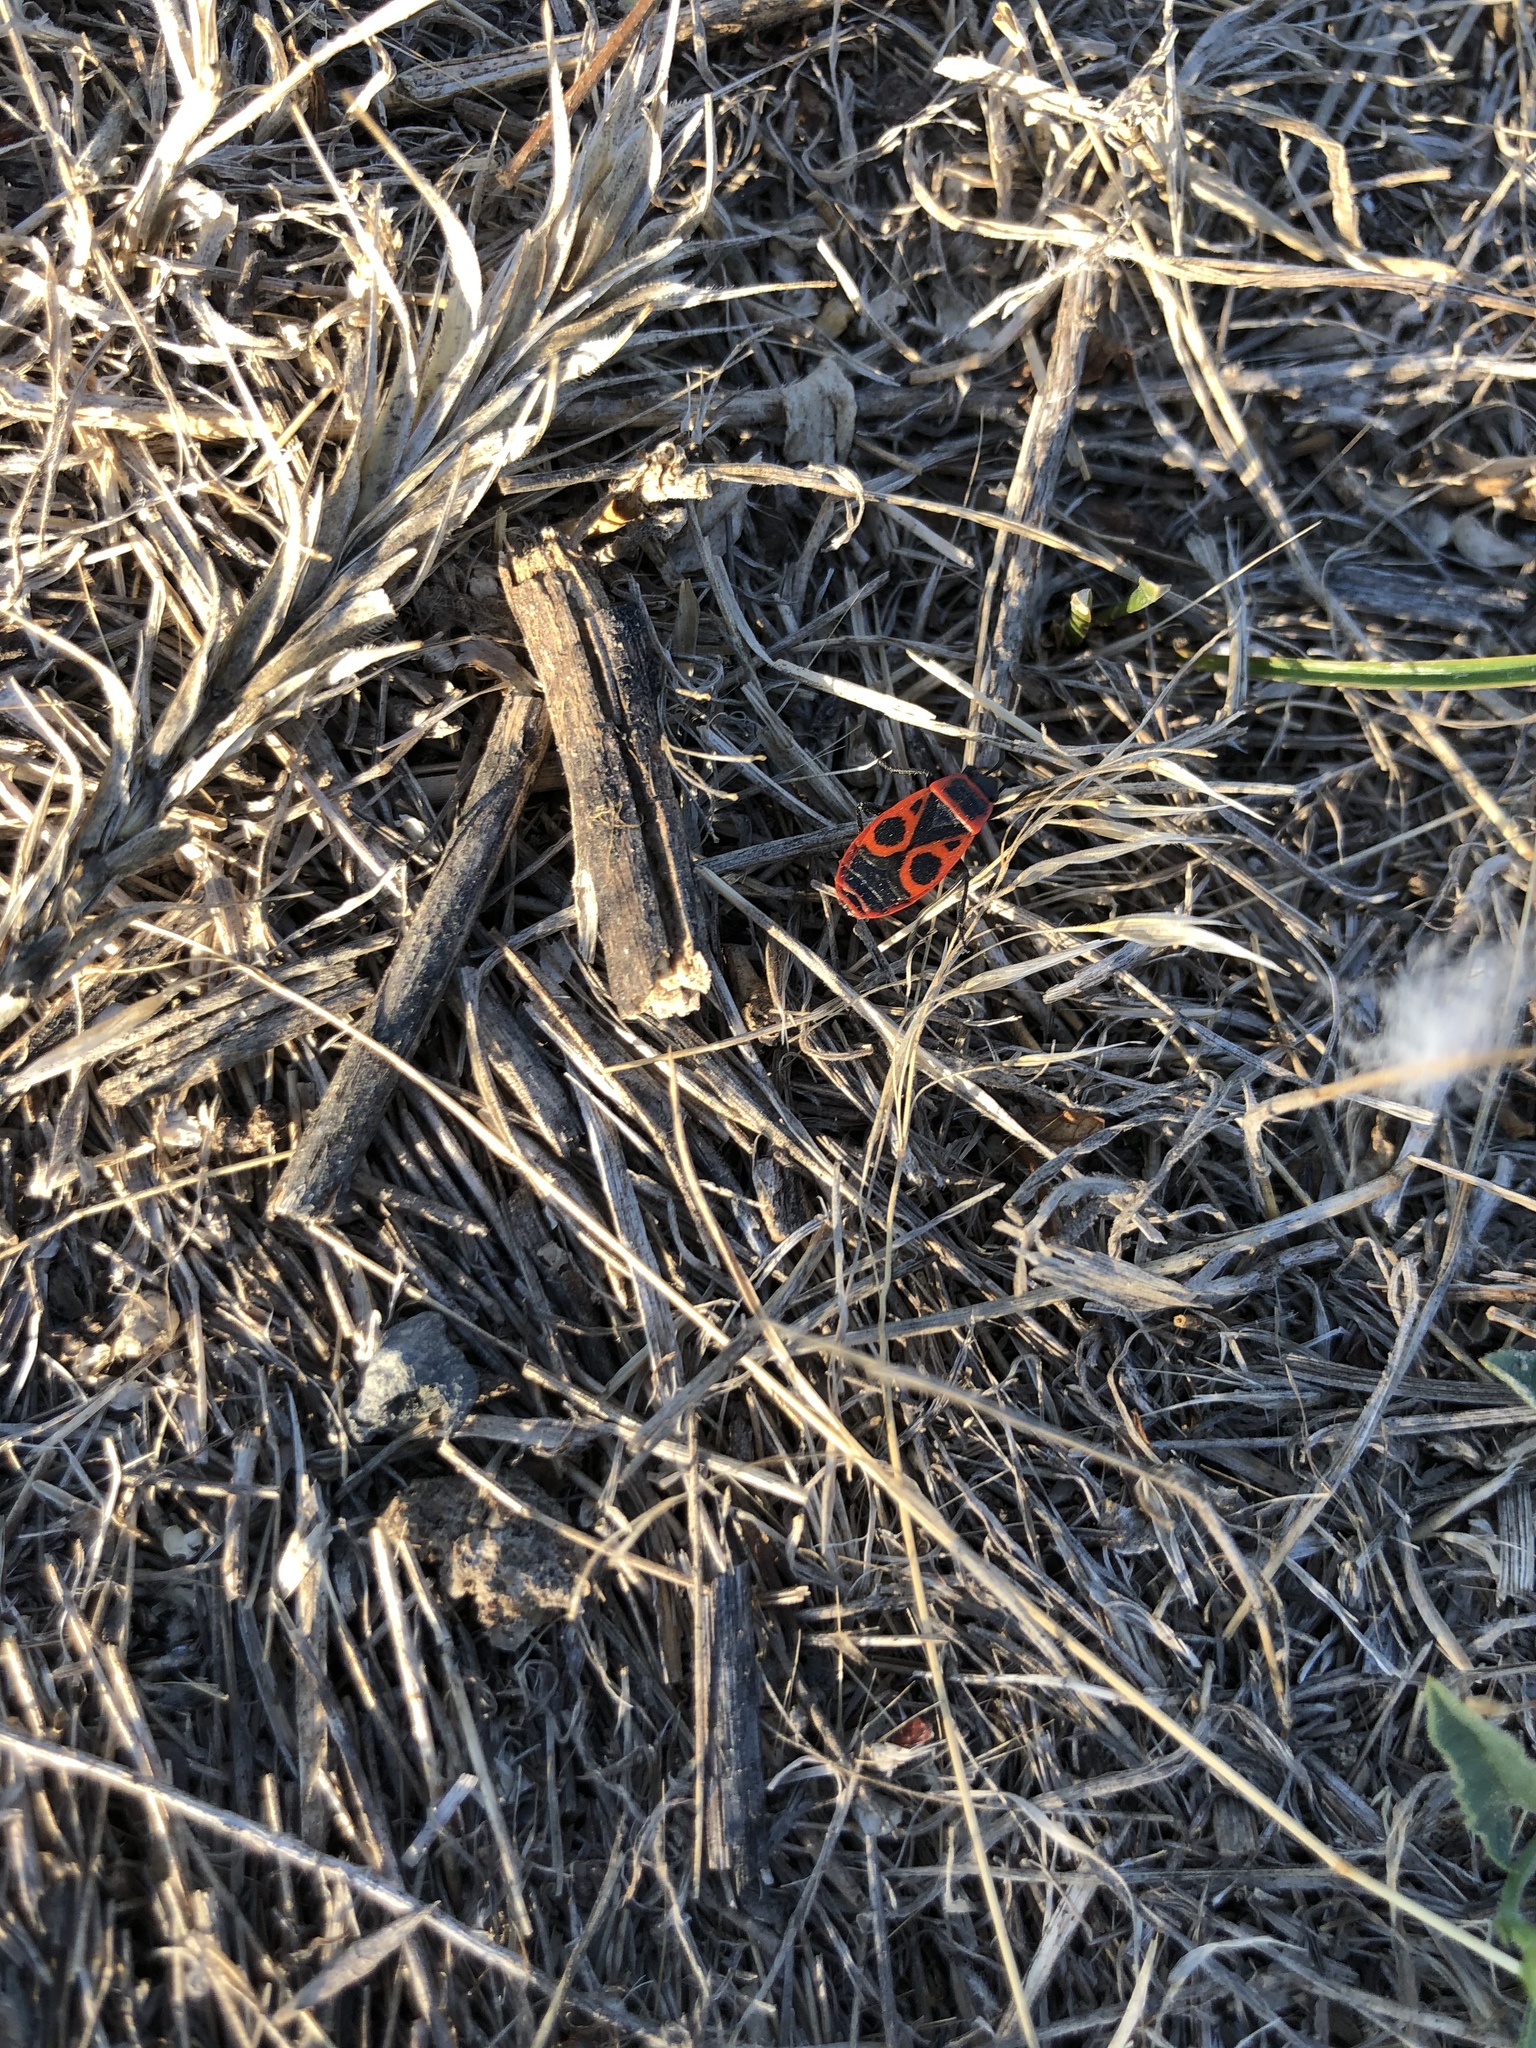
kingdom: Animalia
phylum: Arthropoda
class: Insecta
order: Hemiptera
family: Pyrrhocoridae
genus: Pyrrhocoris
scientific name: Pyrrhocoris apterus
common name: Firebug
